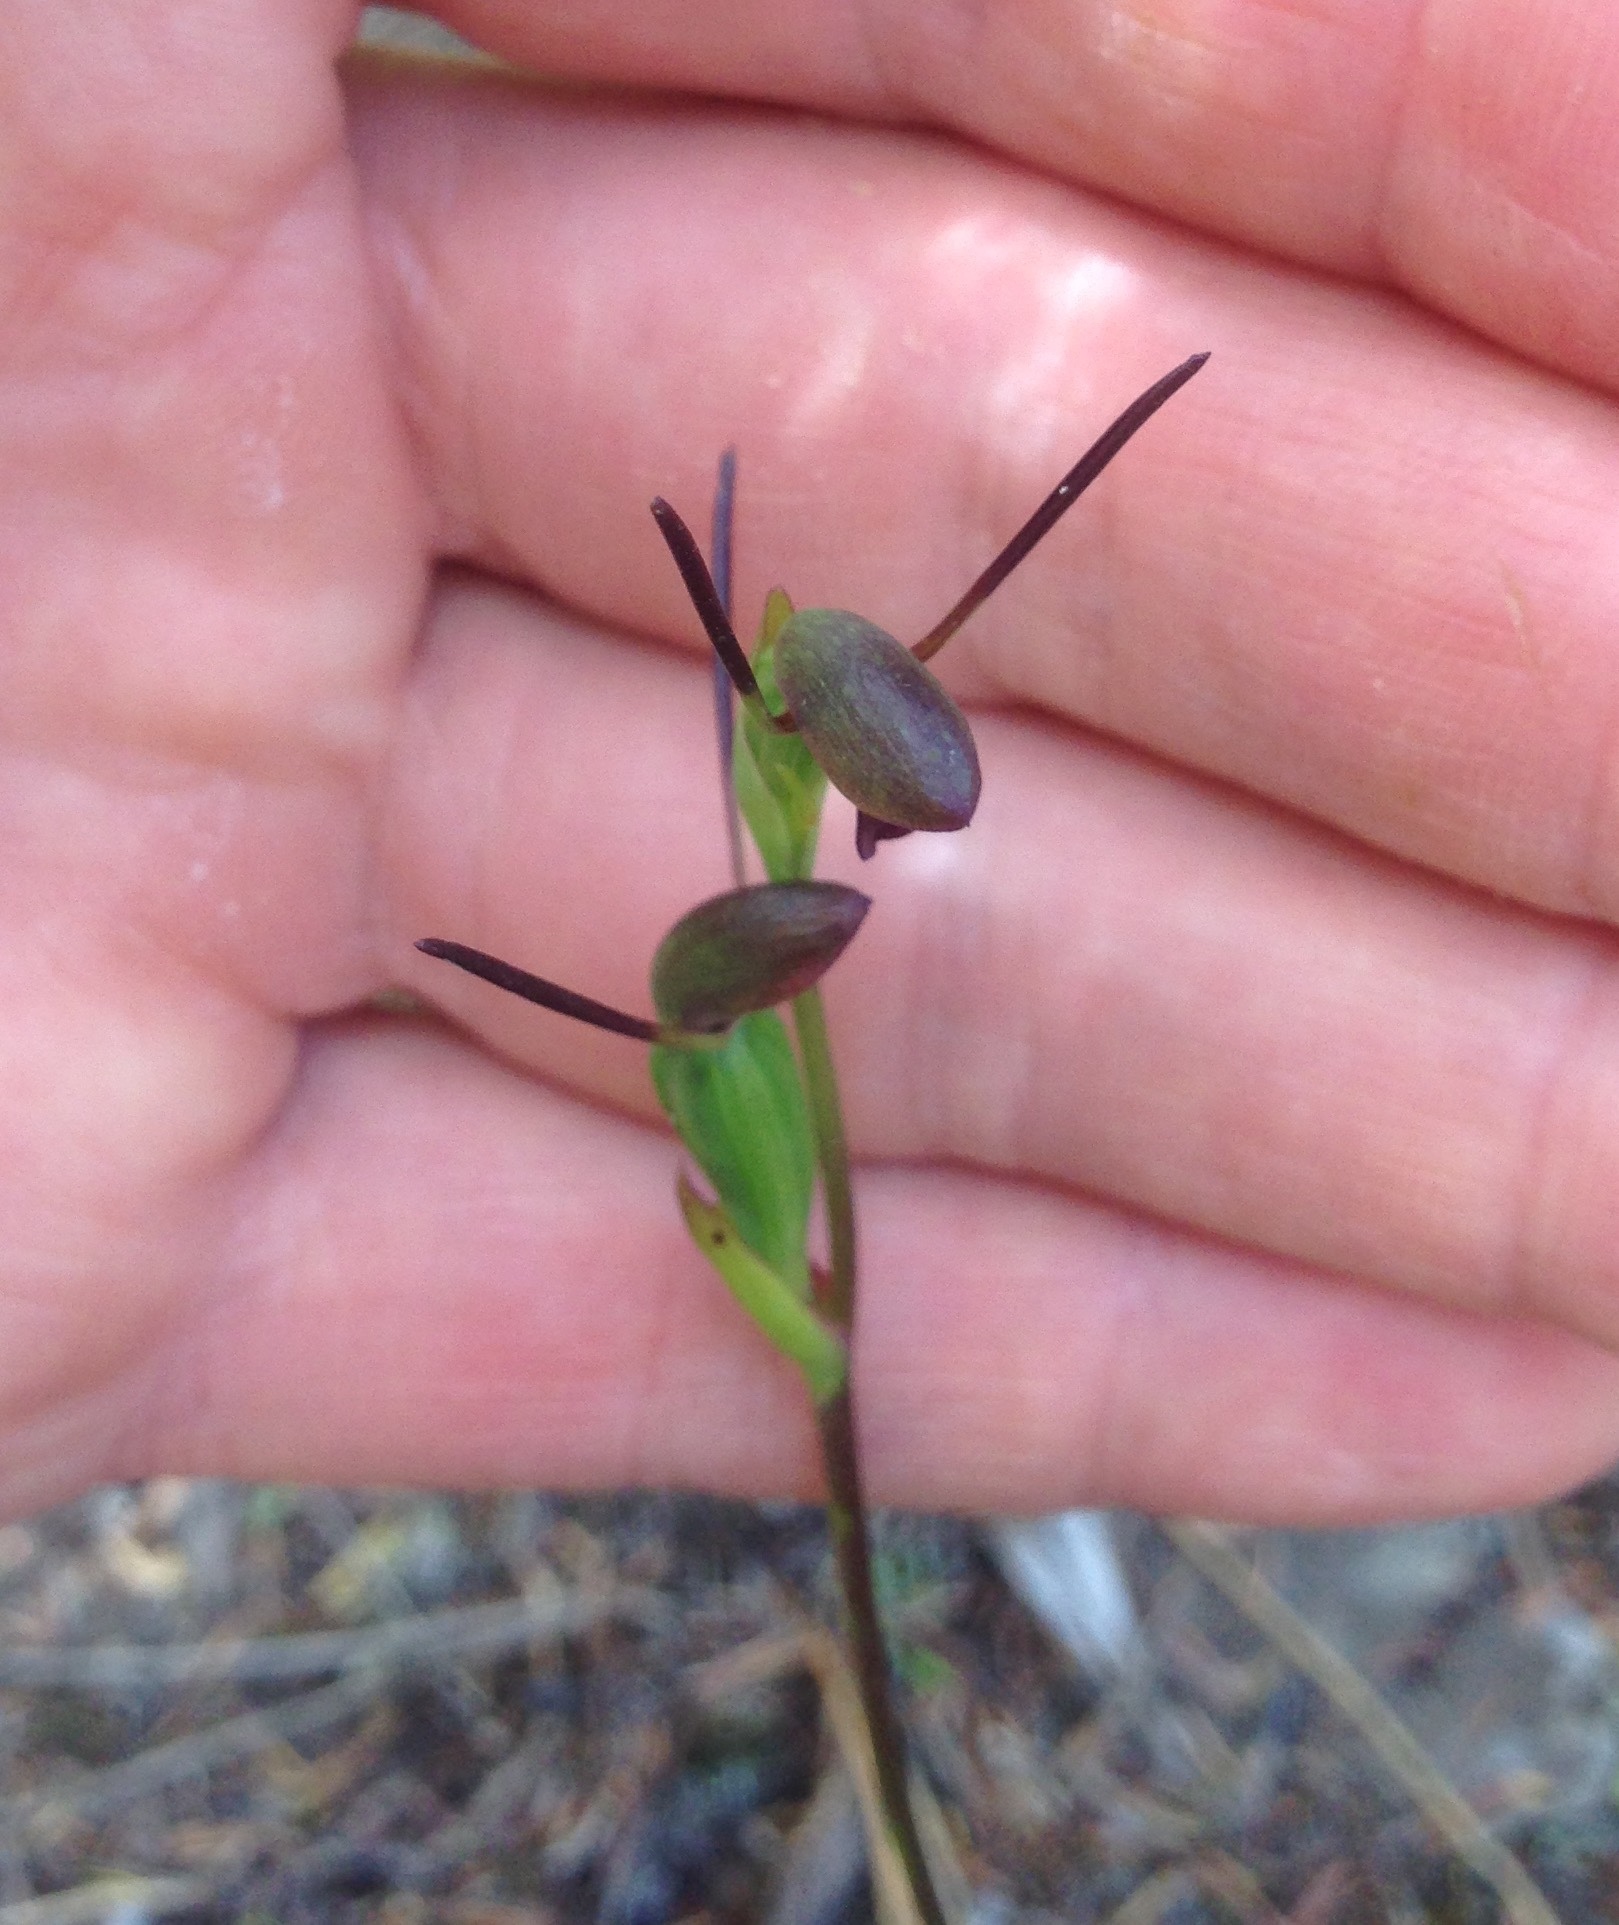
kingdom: Plantae
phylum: Tracheophyta
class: Liliopsida
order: Asparagales
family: Orchidaceae
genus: Orthoceras
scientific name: Orthoceras novae-zeelandiae
